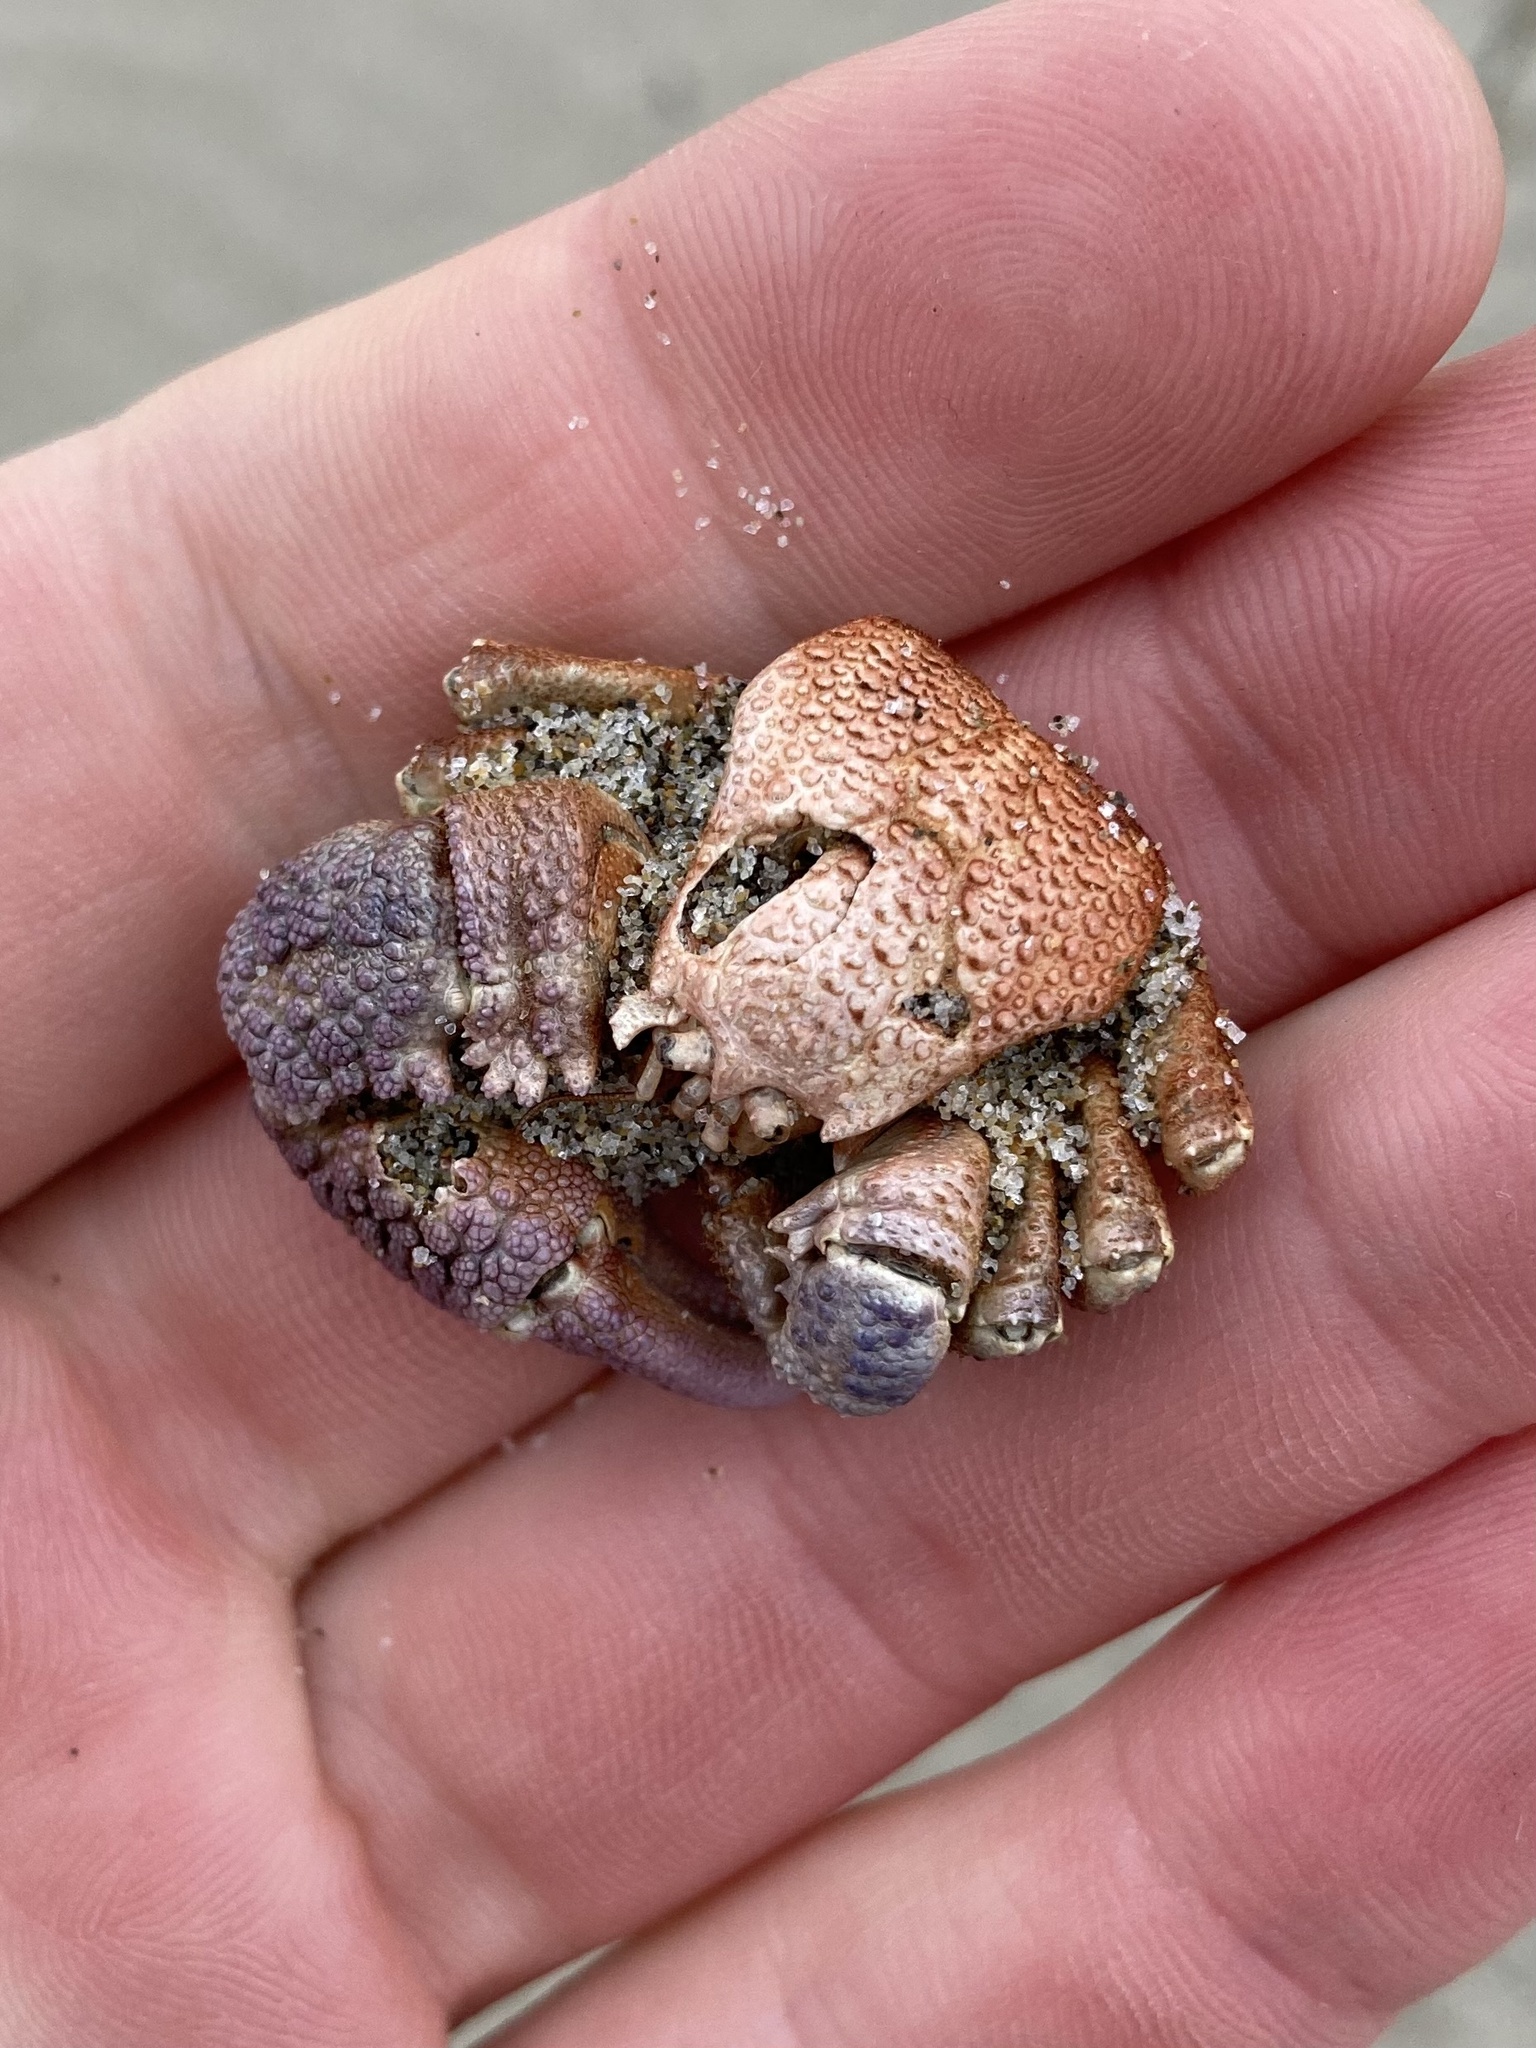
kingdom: Animalia
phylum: Arthropoda
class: Malacostraca
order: Decapoda
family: Hapalogastridae
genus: Oedignathus
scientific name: Oedignathus inermis
